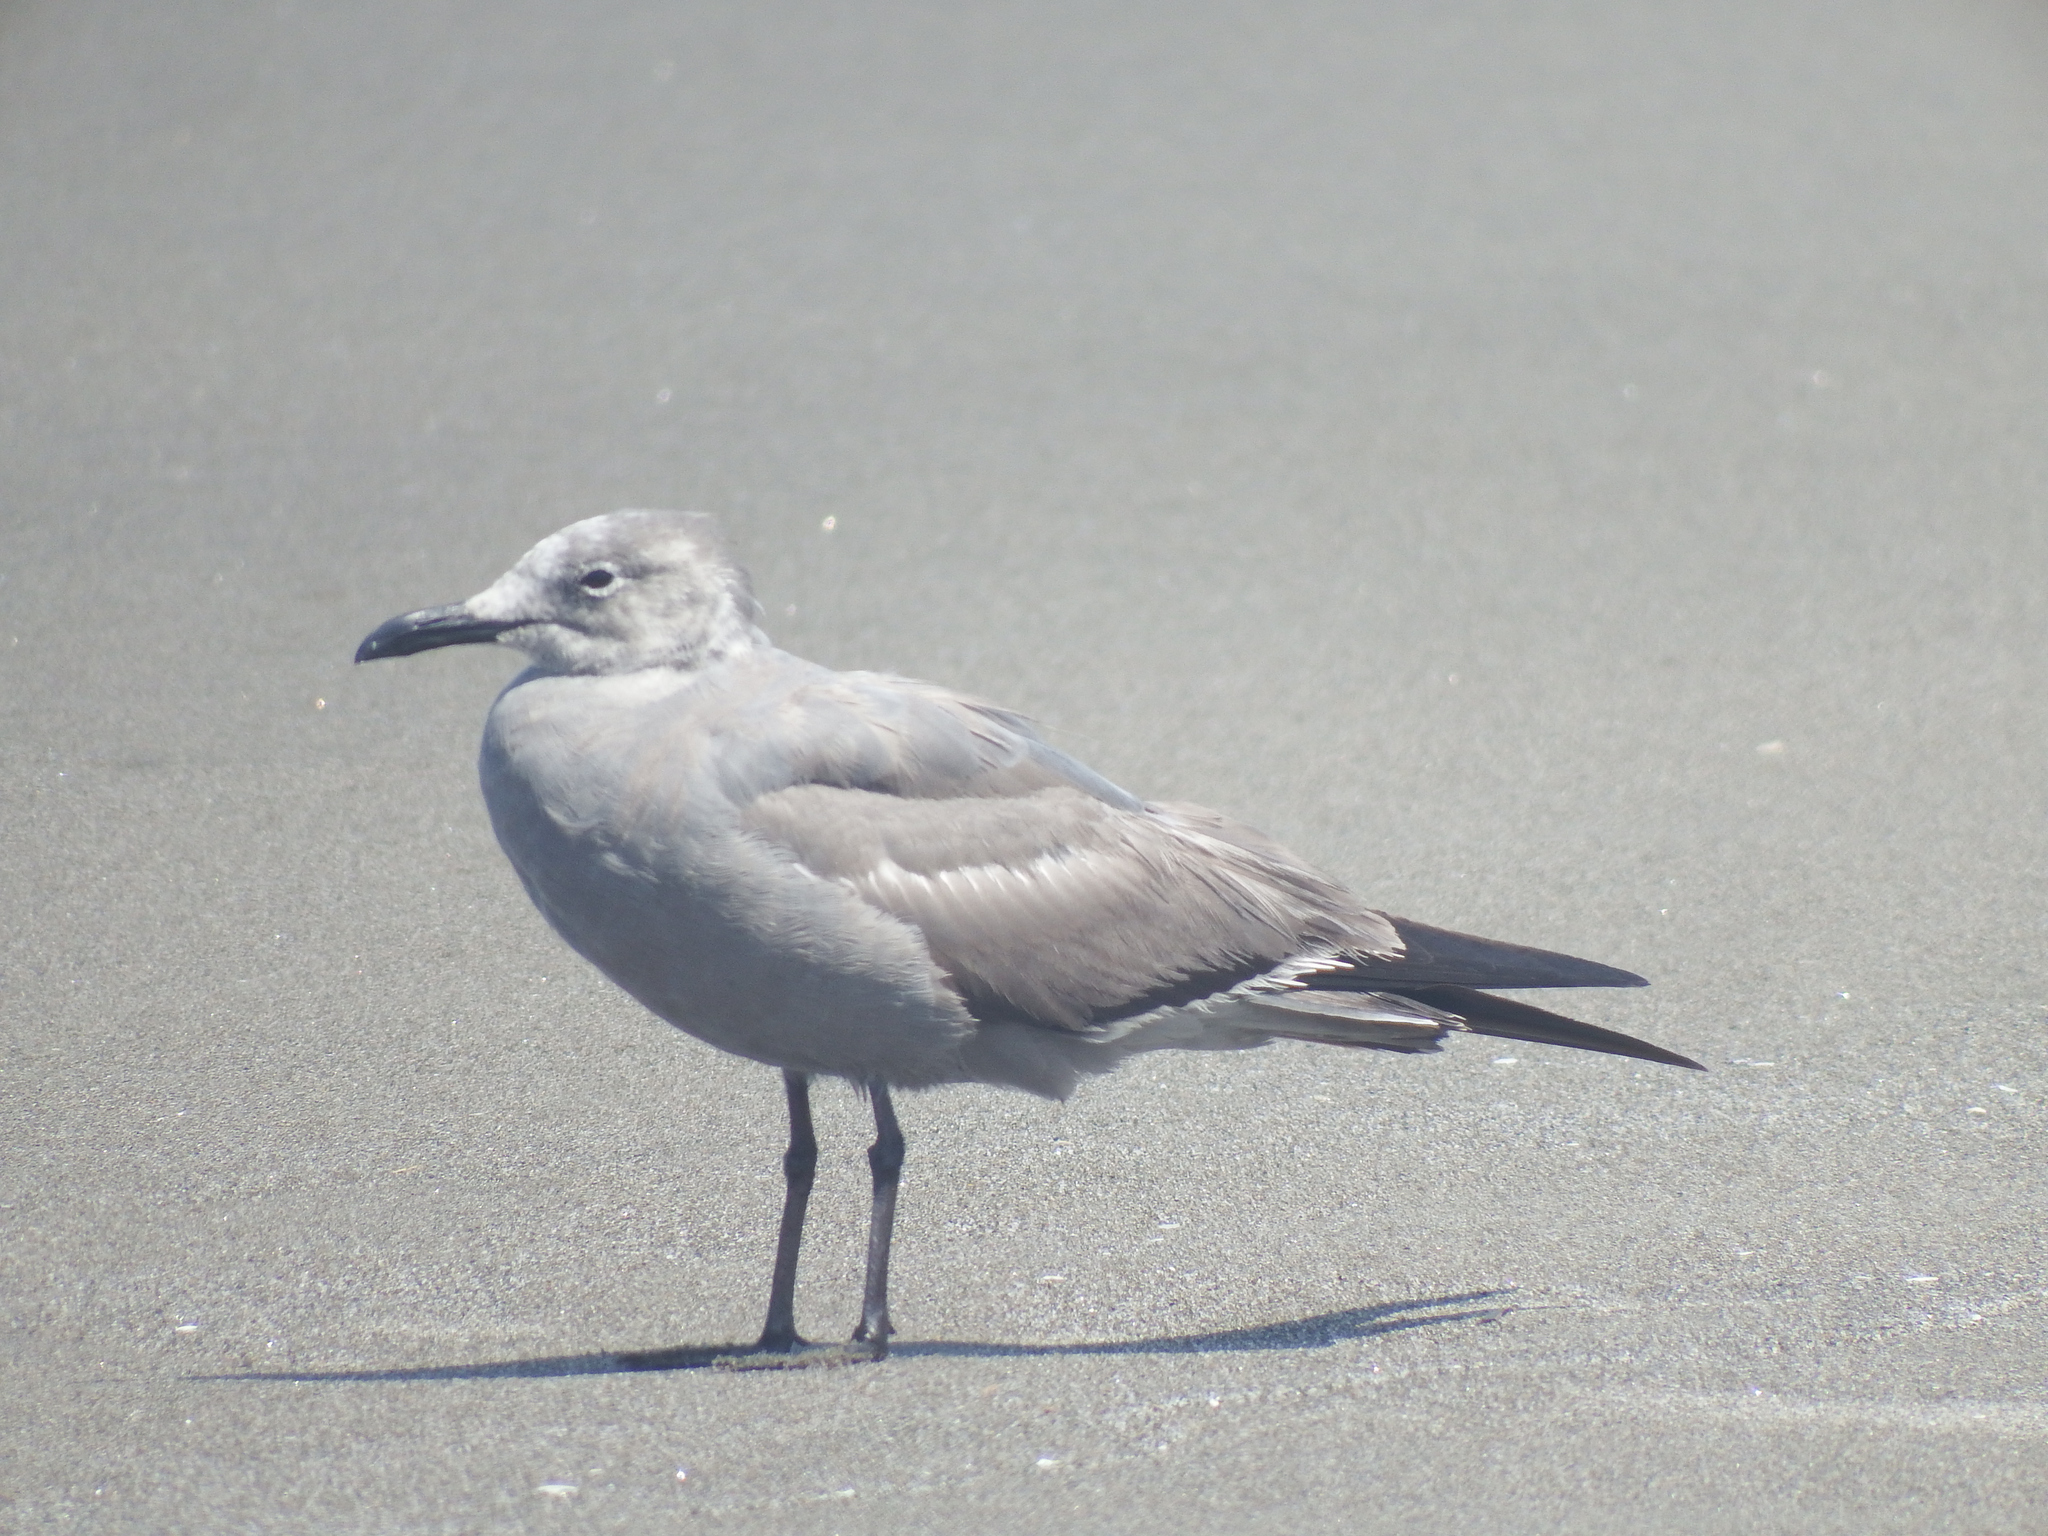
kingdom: Animalia
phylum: Chordata
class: Aves
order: Charadriiformes
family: Laridae
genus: Leucophaeus
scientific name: Leucophaeus modestus
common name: Gray gull
